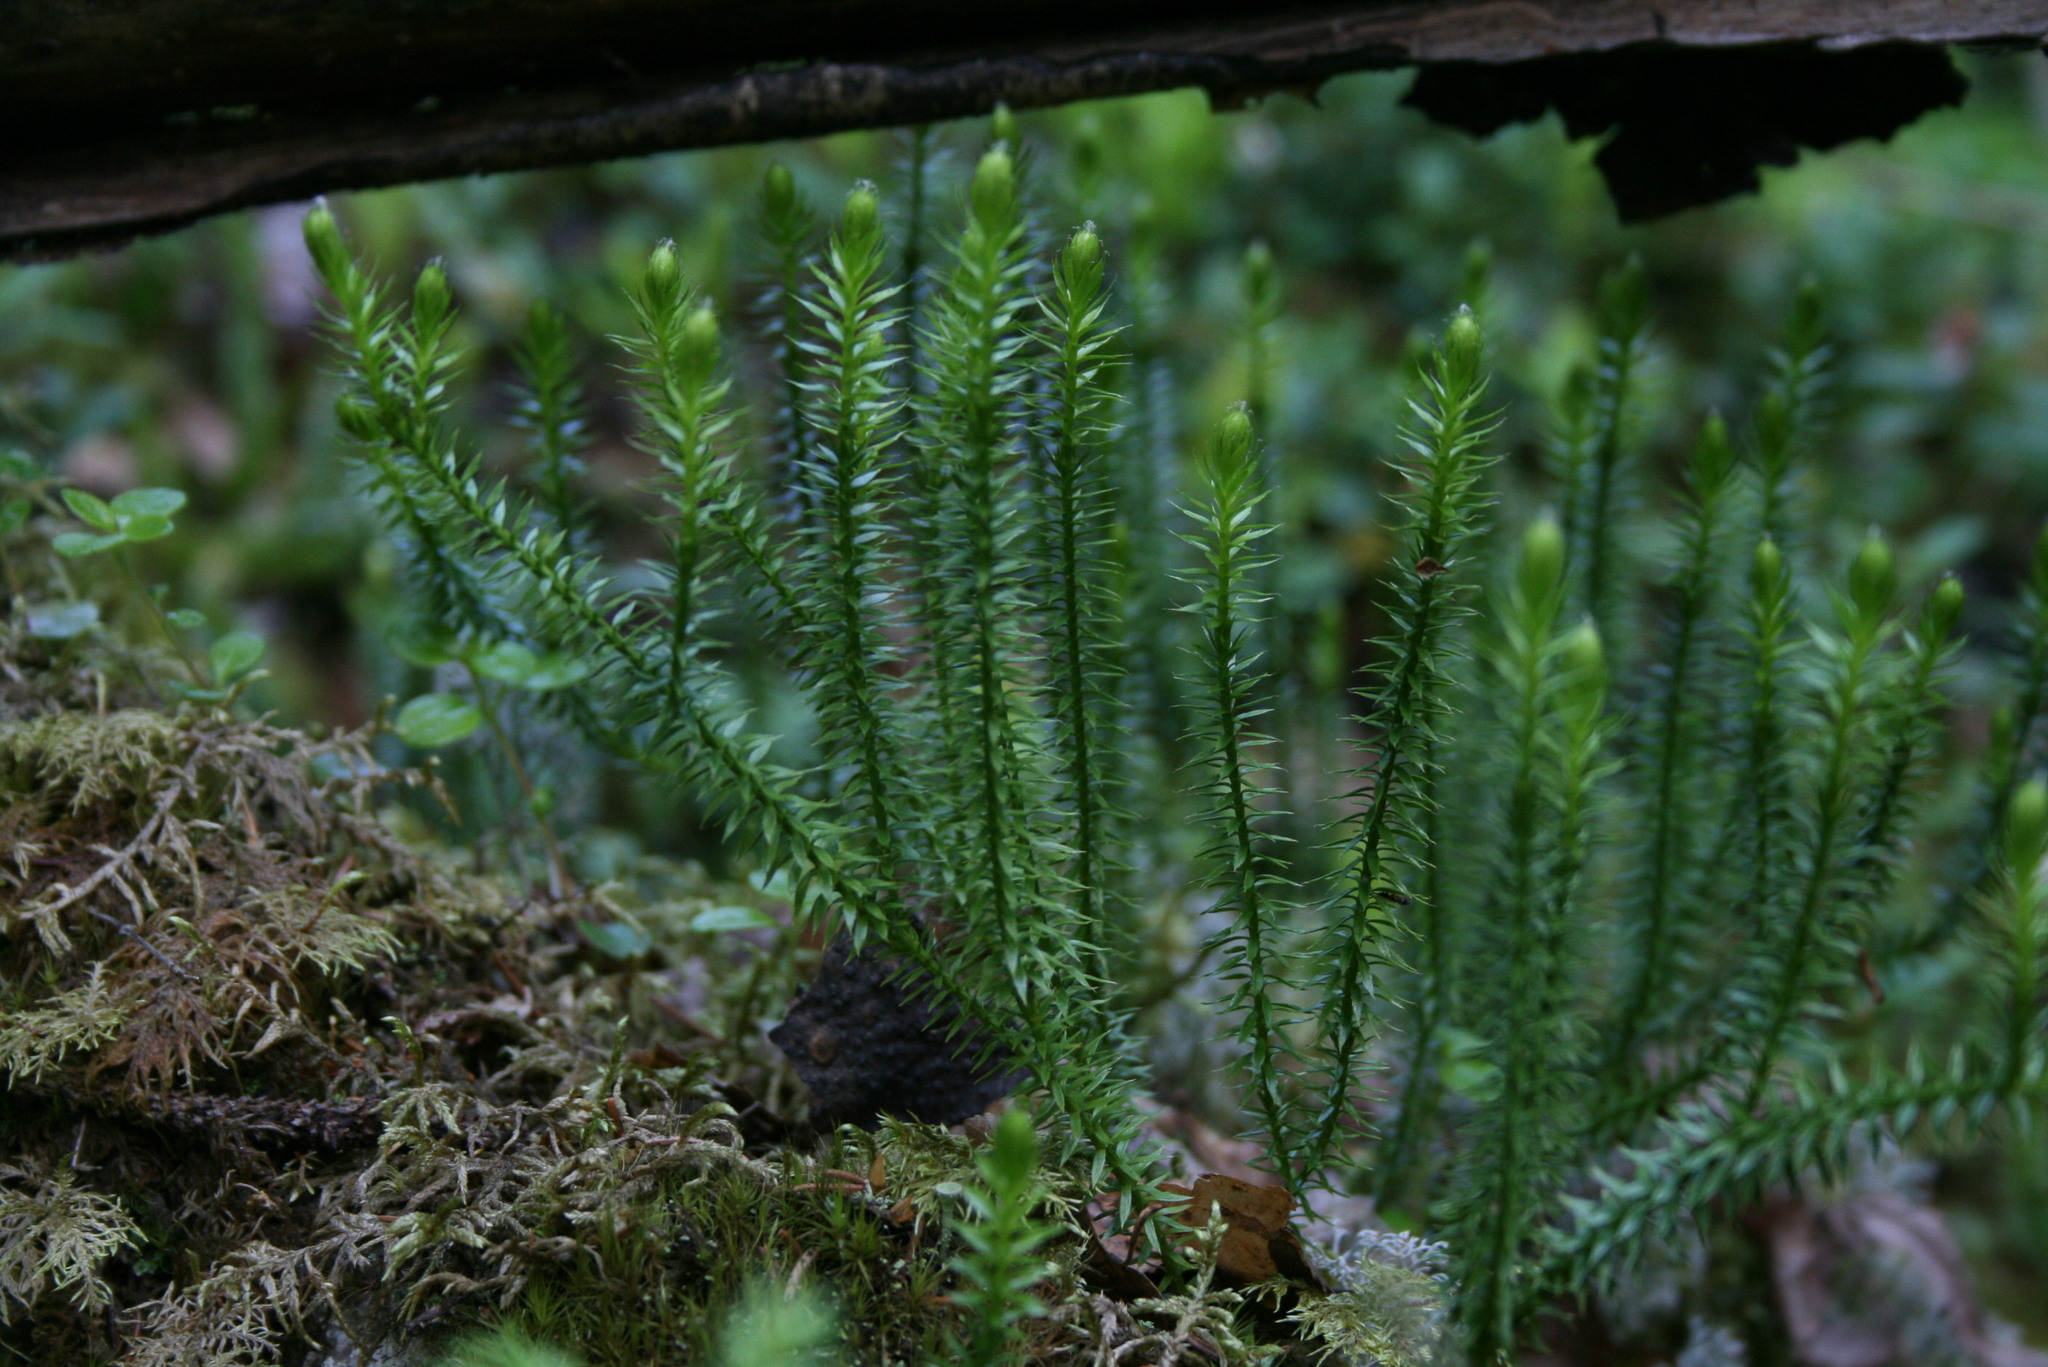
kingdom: Plantae
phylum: Tracheophyta
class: Lycopodiopsida
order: Lycopodiales
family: Lycopodiaceae
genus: Spinulum
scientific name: Spinulum annotinum
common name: Interrupted club-moss
